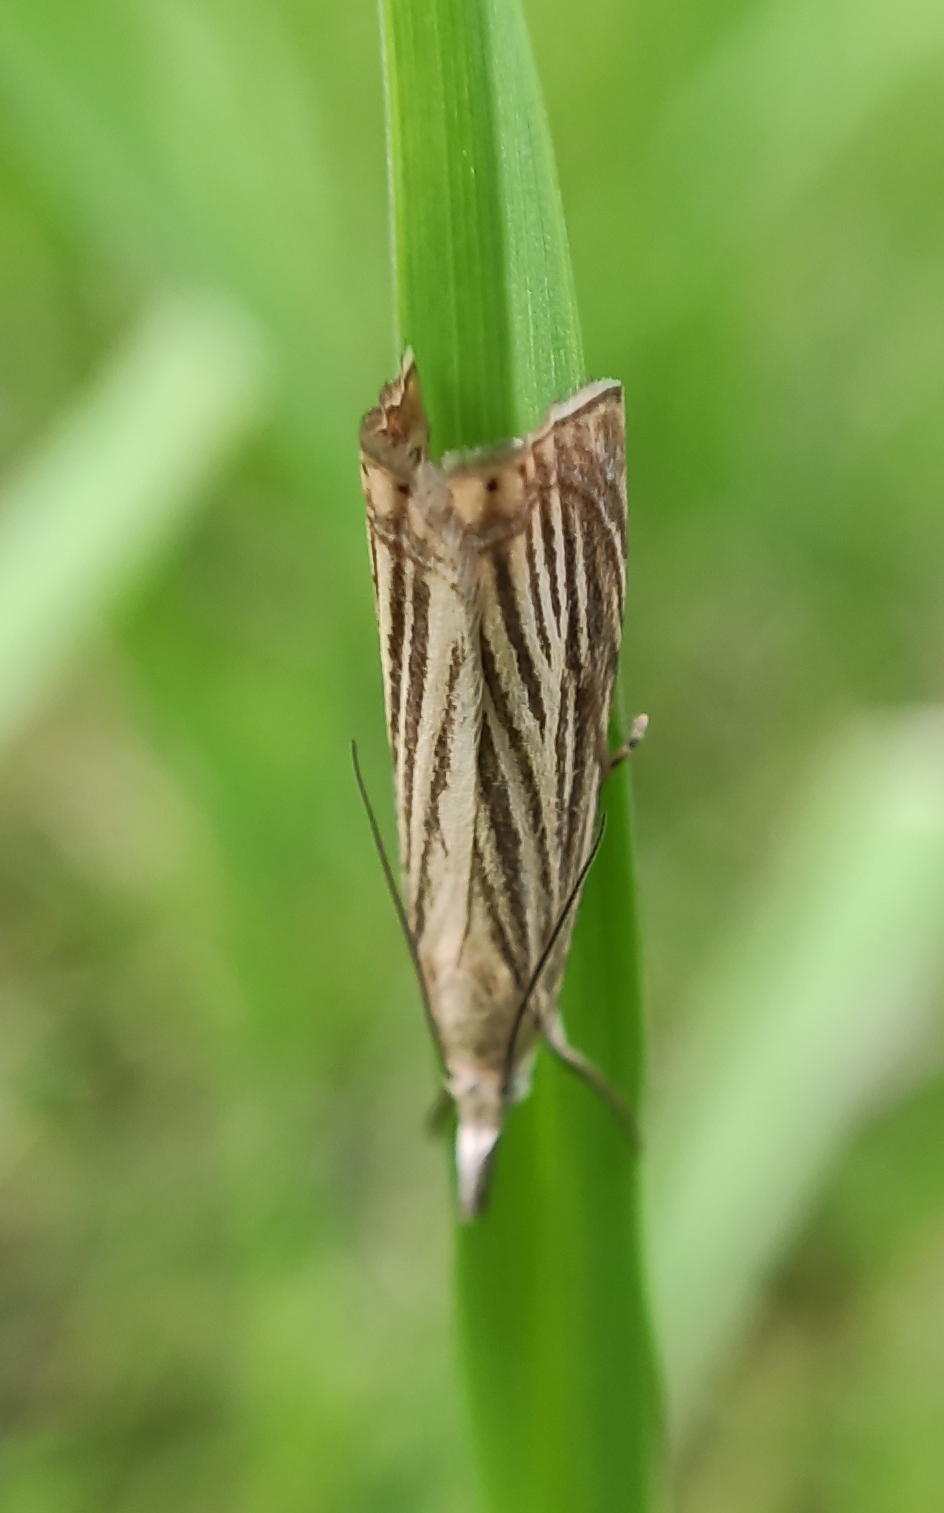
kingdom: Animalia
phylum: Arthropoda
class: Insecta
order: Lepidoptera
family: Crambidae
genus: Chrysoteuchia
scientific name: Chrysoteuchia culmella
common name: Garden grass-veneer
